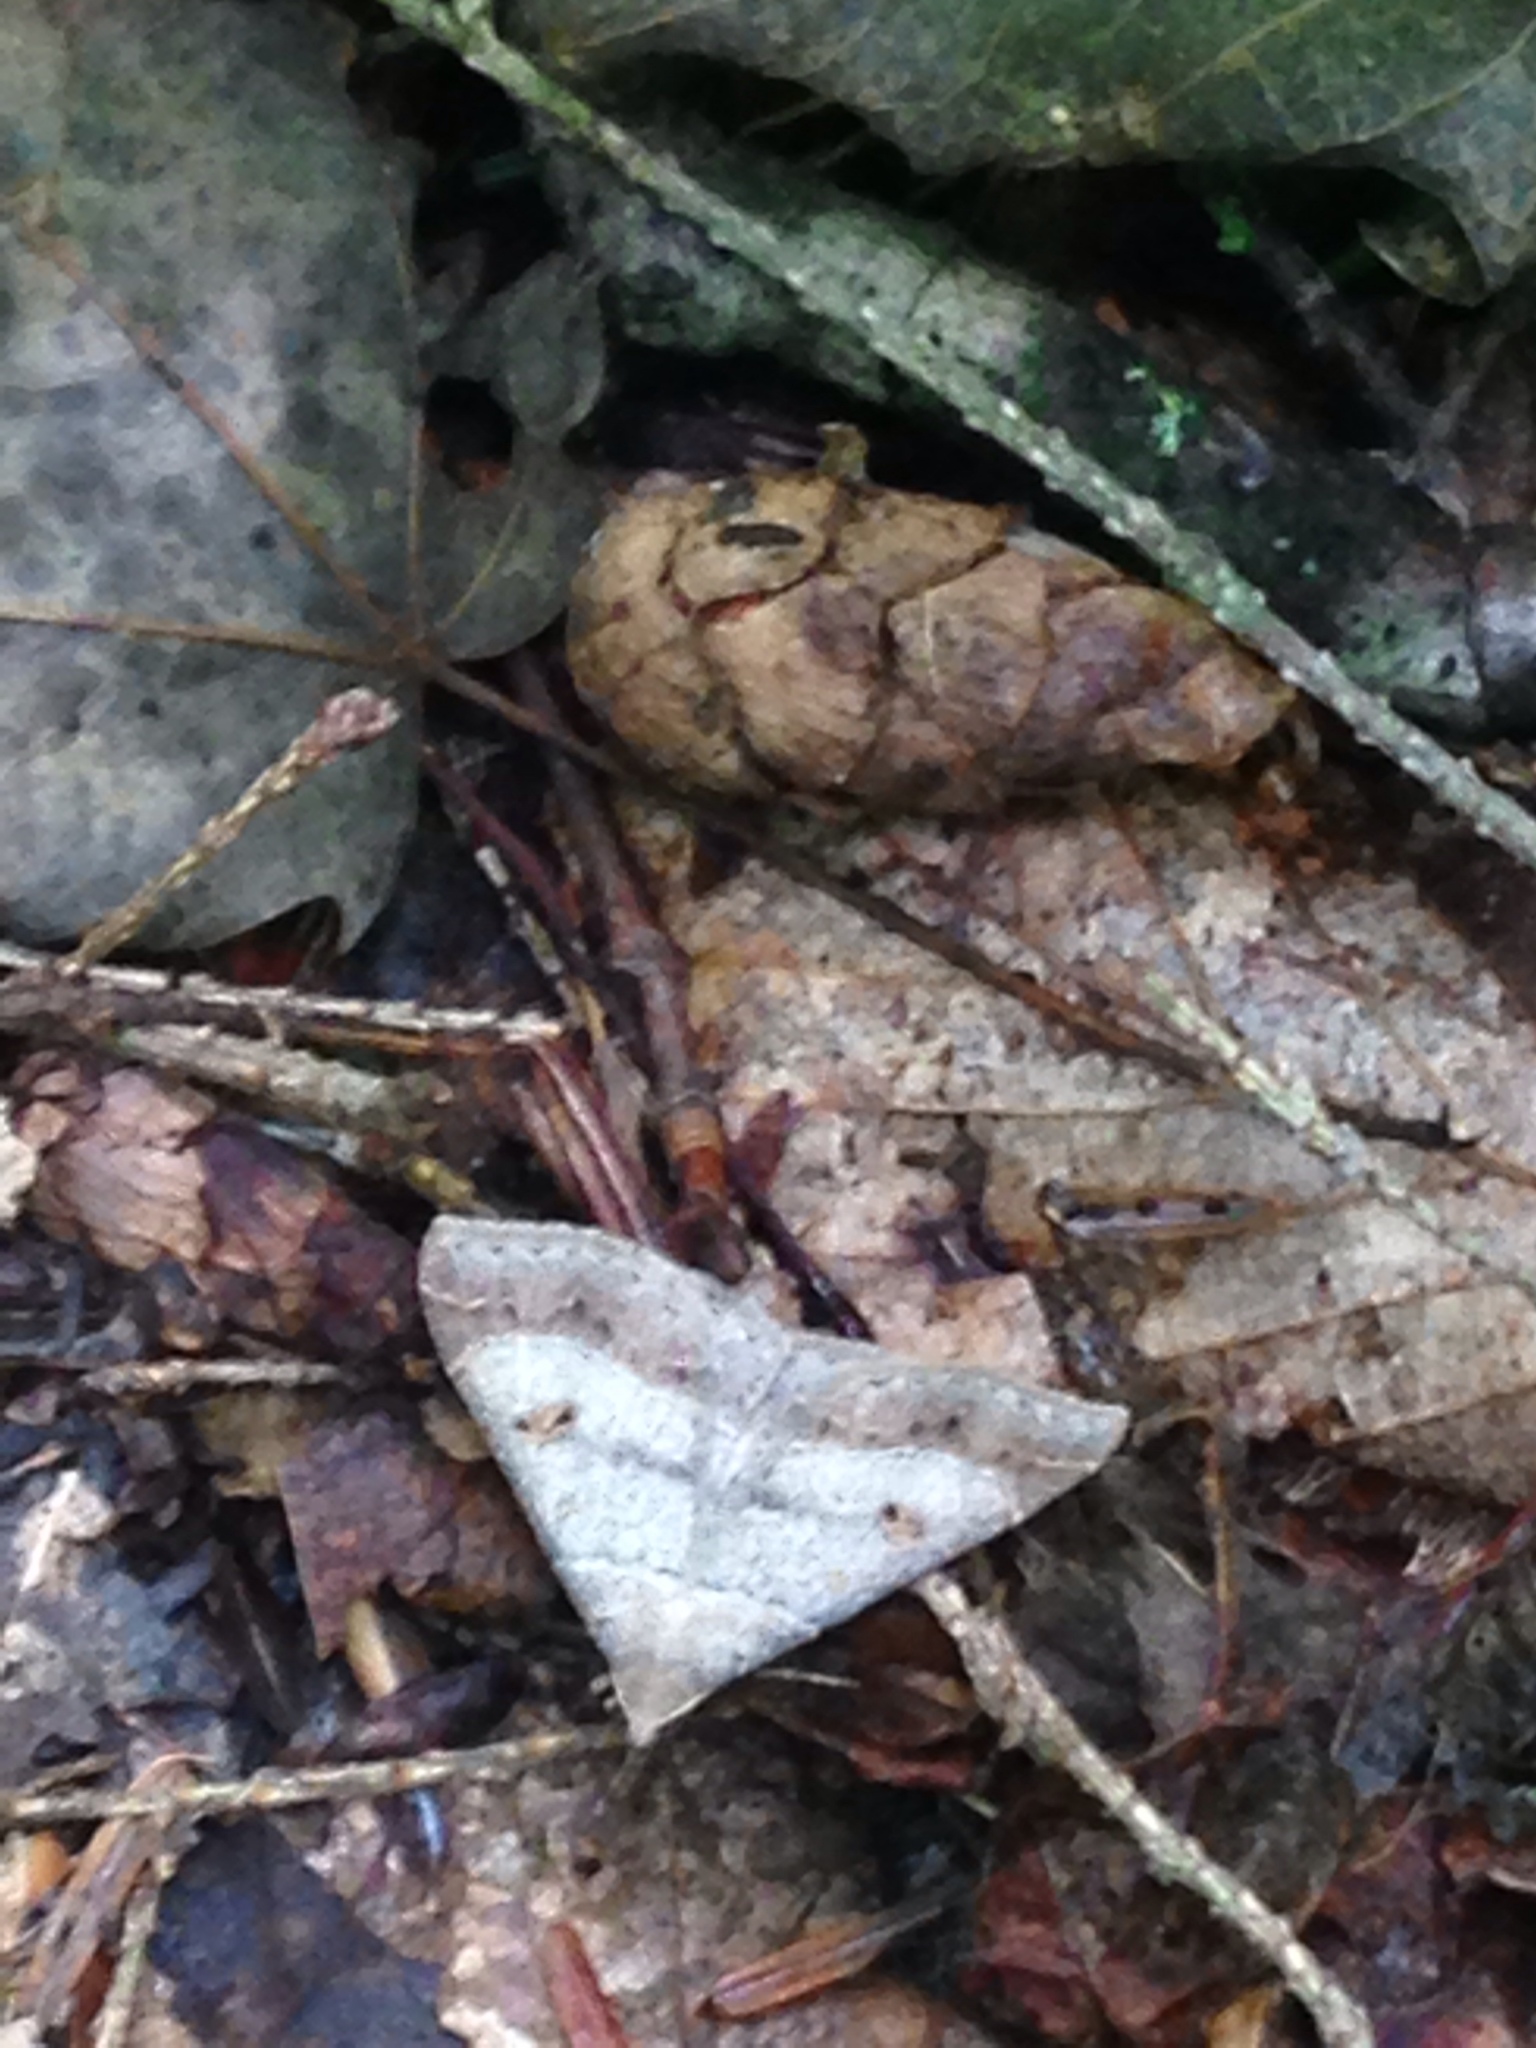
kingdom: Animalia
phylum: Arthropoda
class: Insecta
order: Lepidoptera
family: Erebidae
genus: Renia
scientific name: Renia flavipunctalis
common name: Yellow-spotted renia moth
